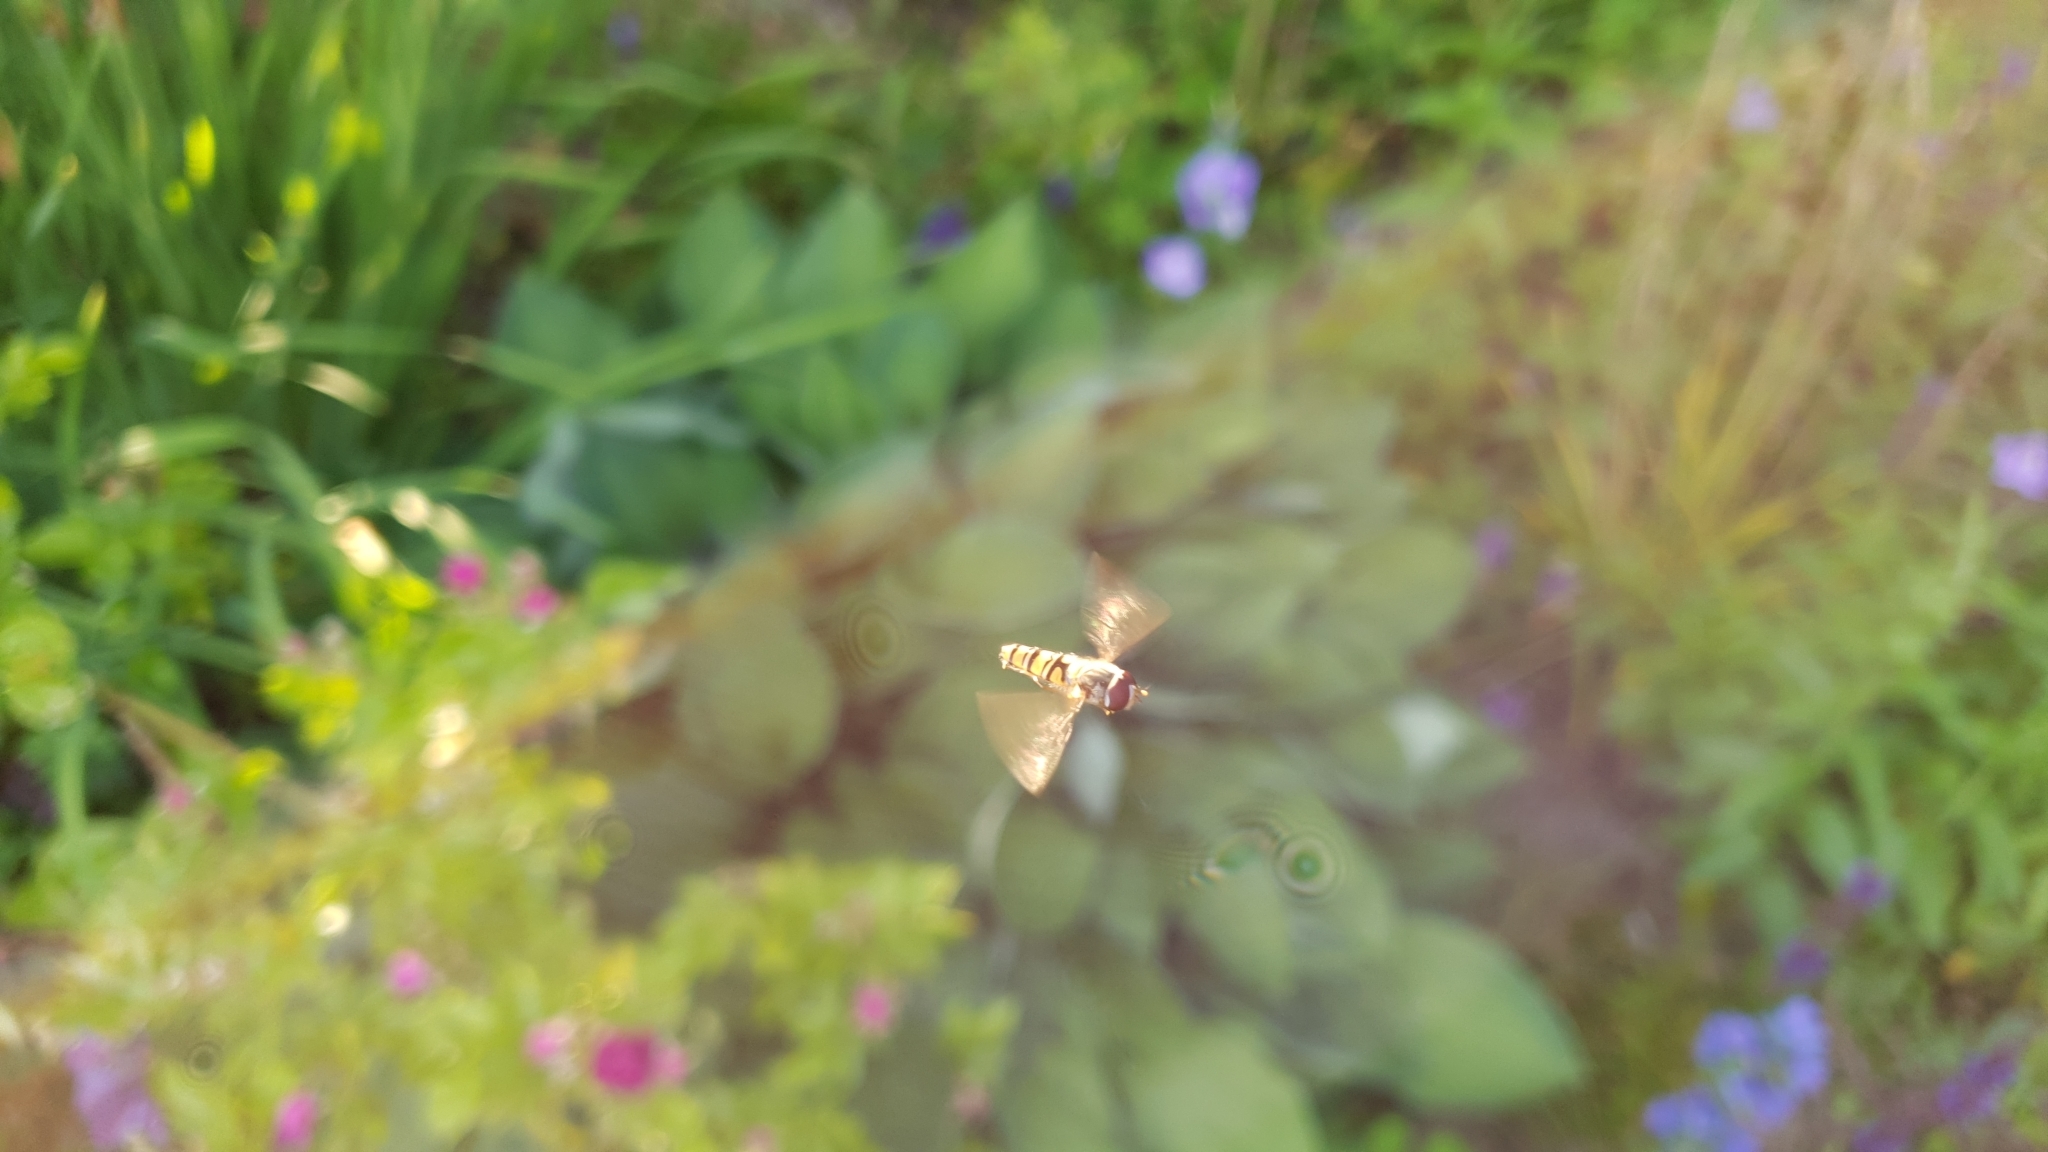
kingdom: Animalia
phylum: Arthropoda
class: Insecta
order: Diptera
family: Syrphidae
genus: Episyrphus
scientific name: Episyrphus balteatus
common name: Marmalade hoverfly
